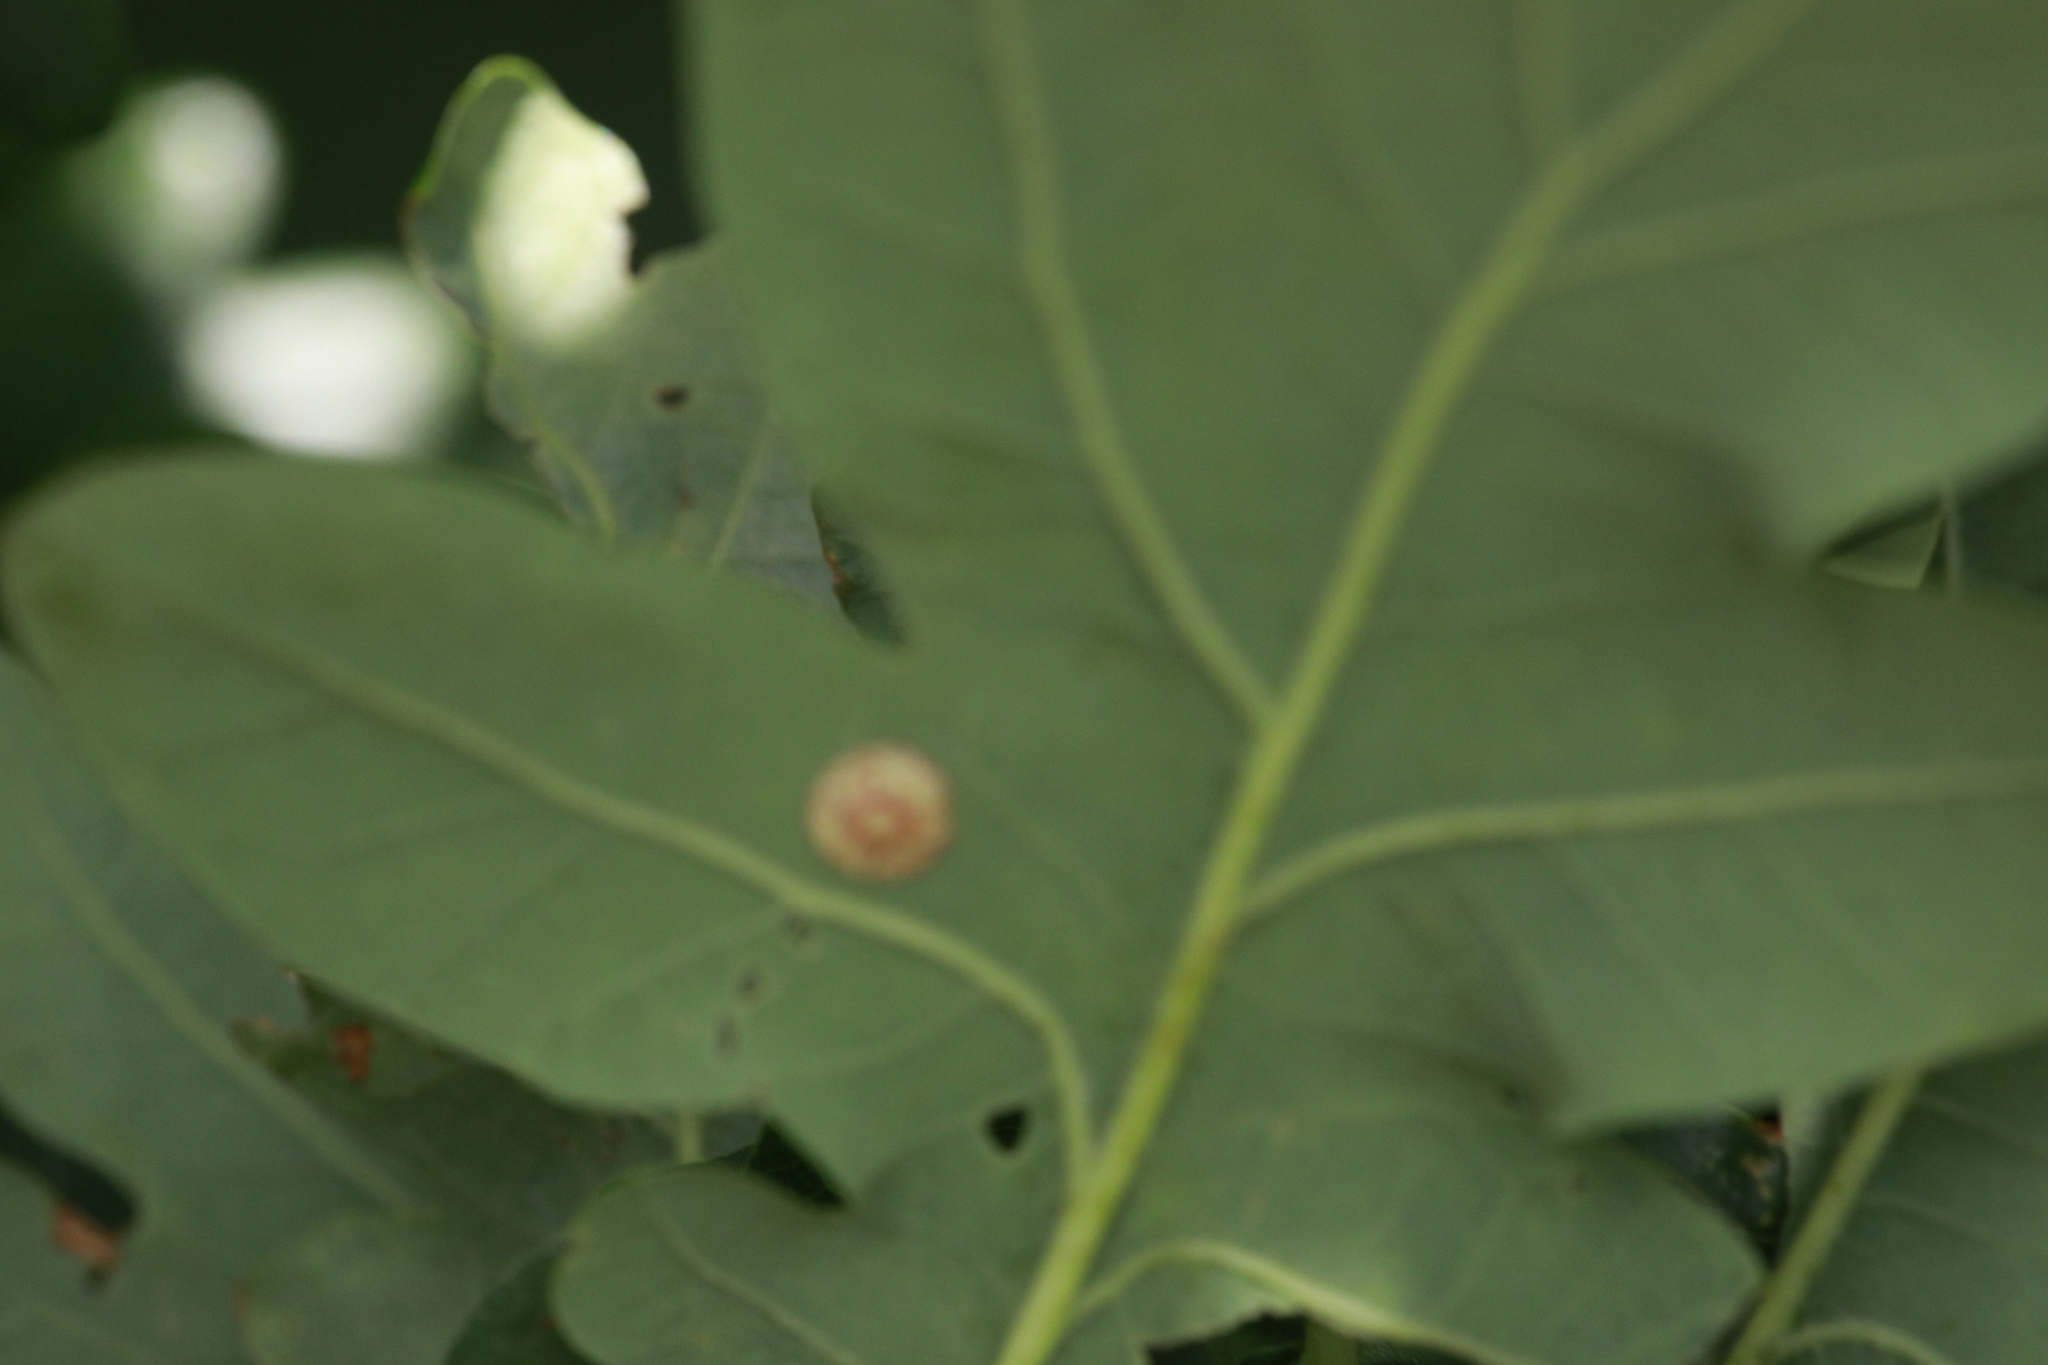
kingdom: Animalia
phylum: Arthropoda
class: Insecta
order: Hymenoptera
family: Cynipidae
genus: Neuroterus
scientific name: Neuroterus quercusbaccarum
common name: Common spangle gall
